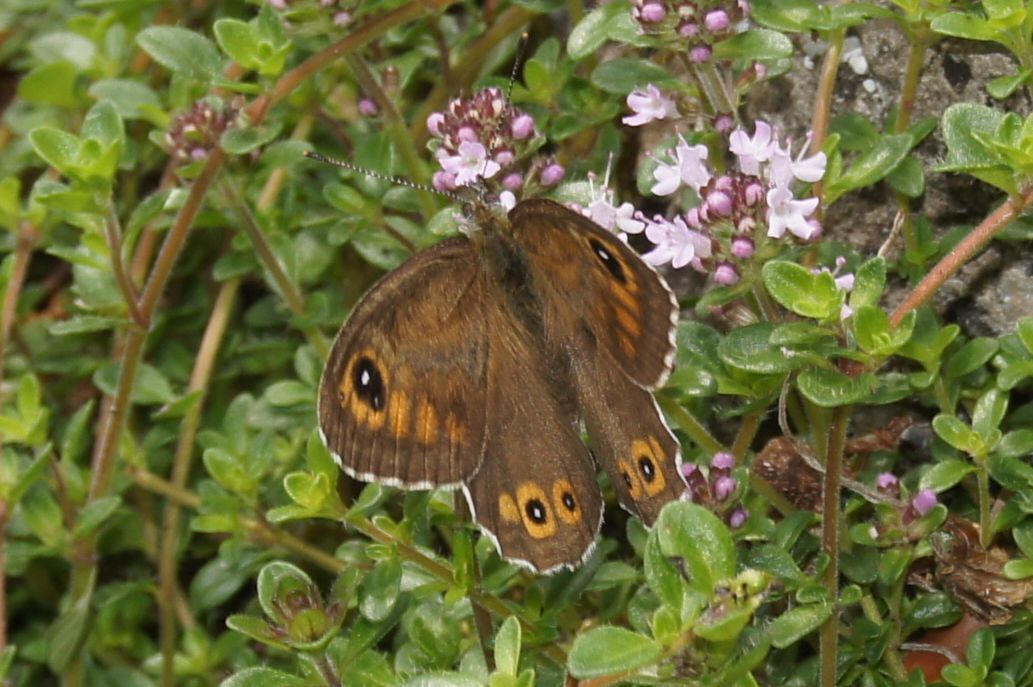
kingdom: Animalia
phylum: Arthropoda
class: Insecta
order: Lepidoptera
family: Nymphalidae
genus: Pararge
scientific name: Pararge Lasiommata maera
